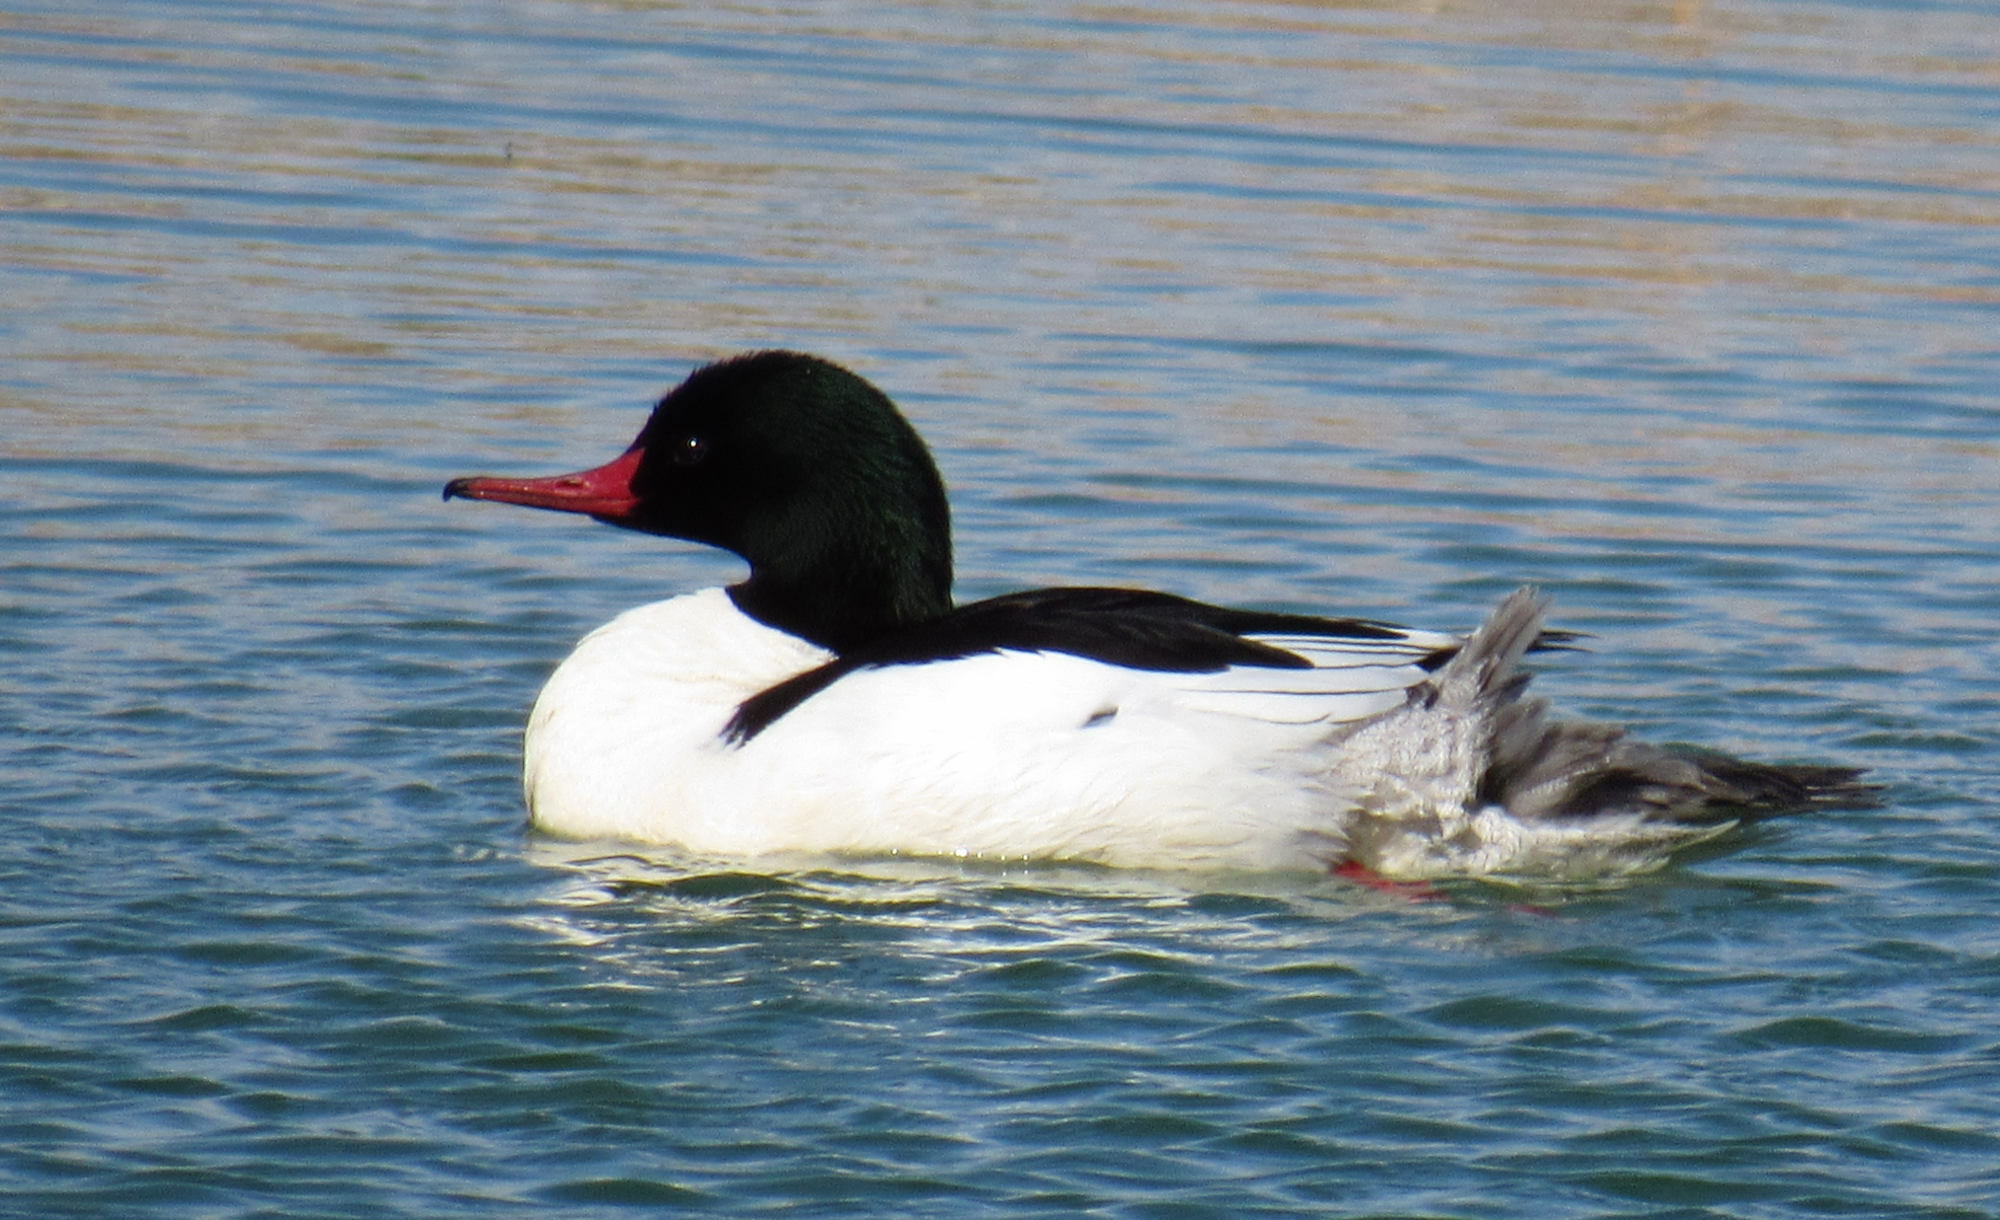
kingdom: Animalia
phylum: Chordata
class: Aves
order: Anseriformes
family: Anatidae
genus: Mergus
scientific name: Mergus merganser
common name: Common merganser
